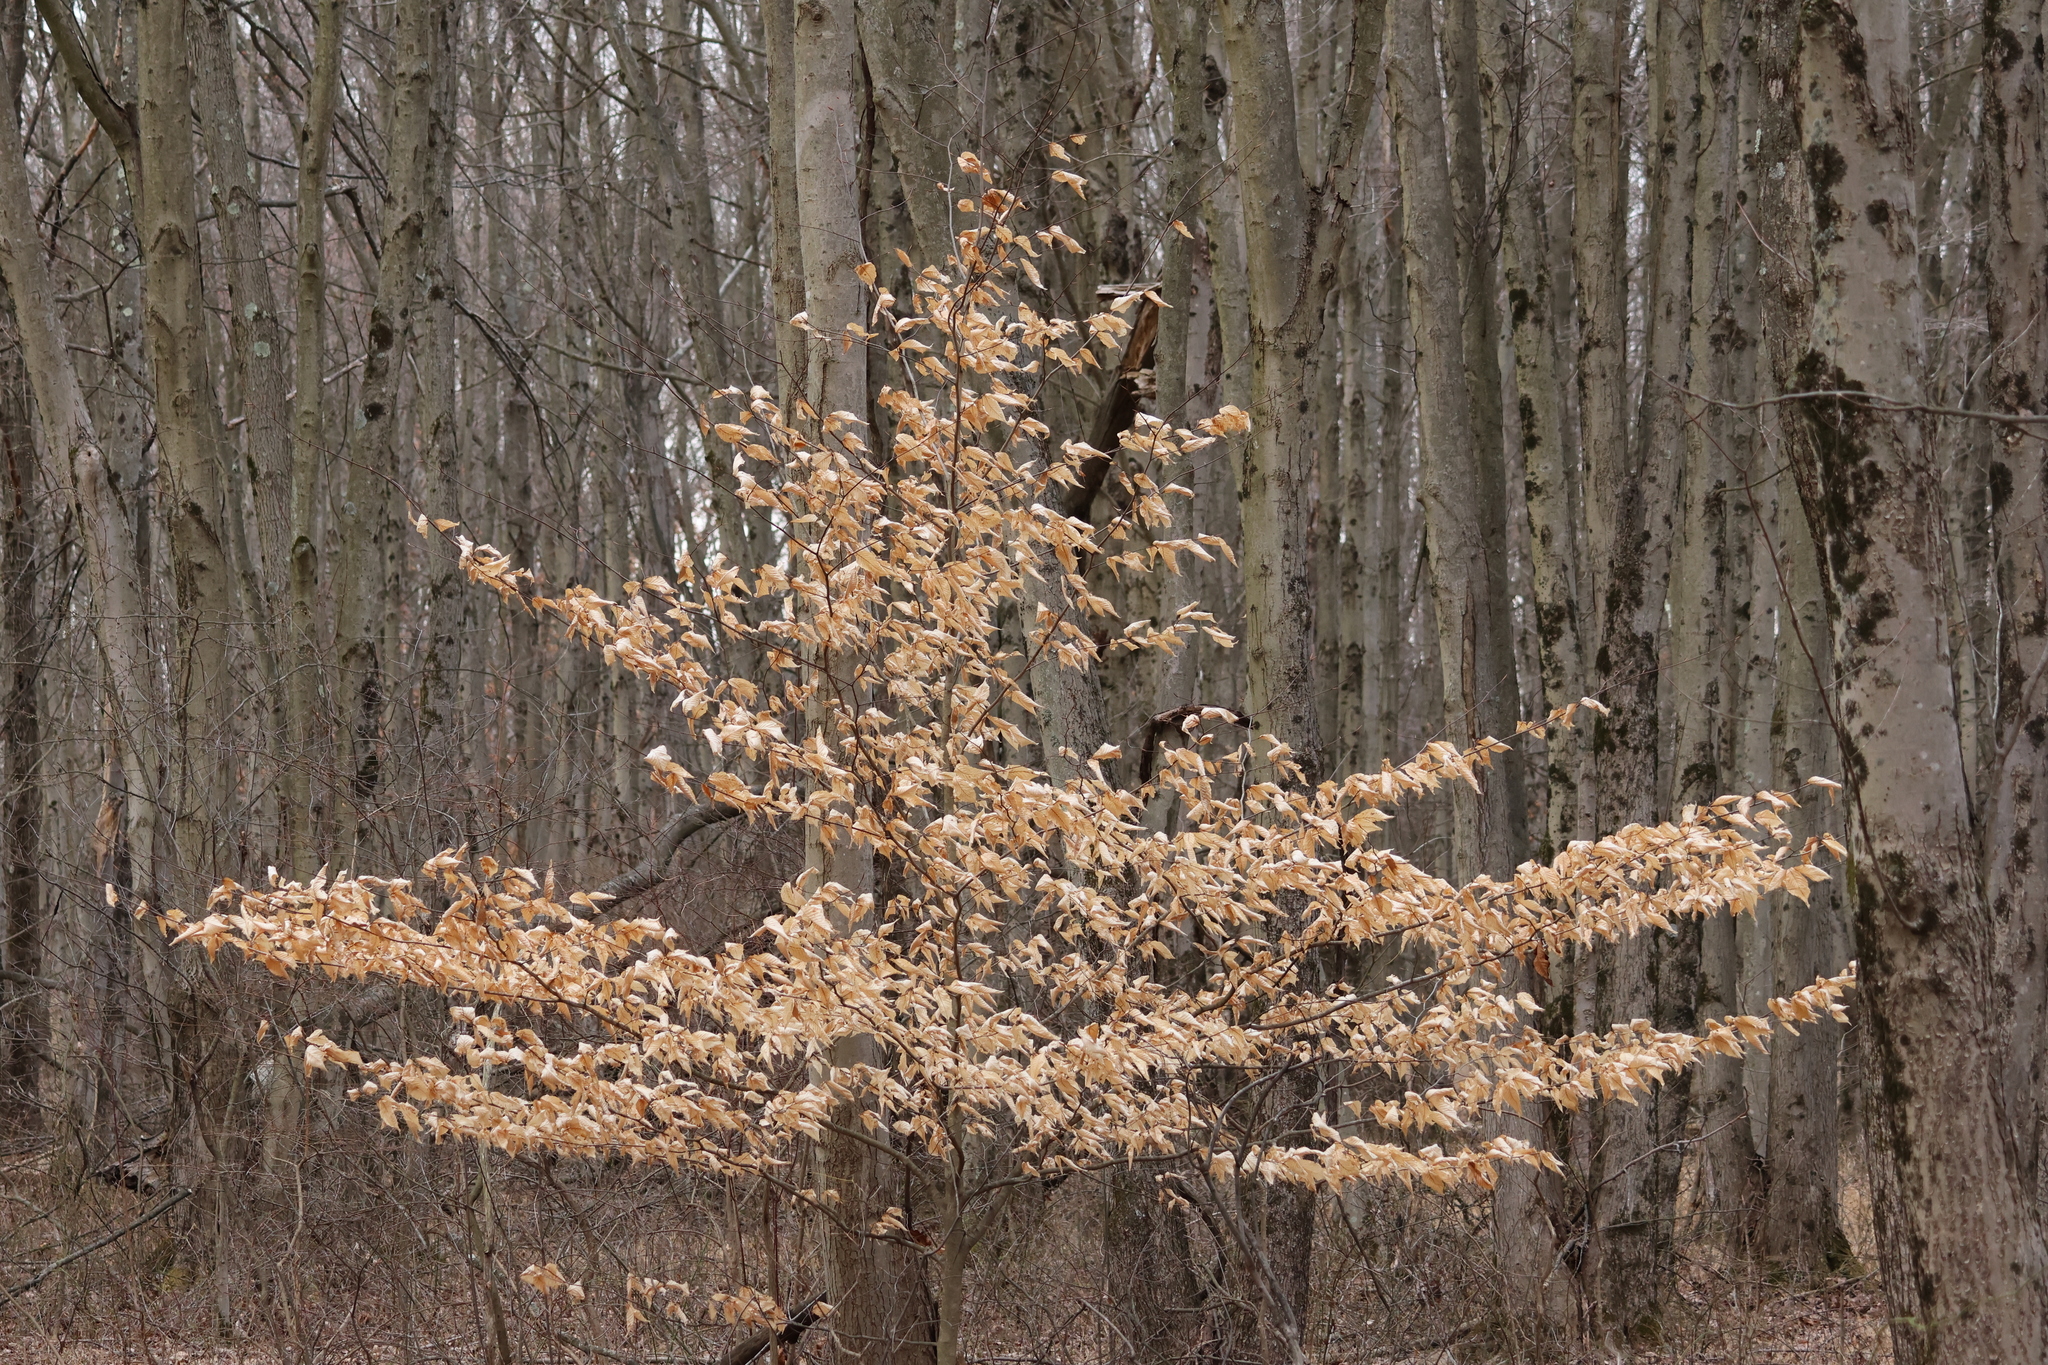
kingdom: Plantae
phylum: Tracheophyta
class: Magnoliopsida
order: Fagales
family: Fagaceae
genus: Fagus
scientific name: Fagus grandifolia
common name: American beech
